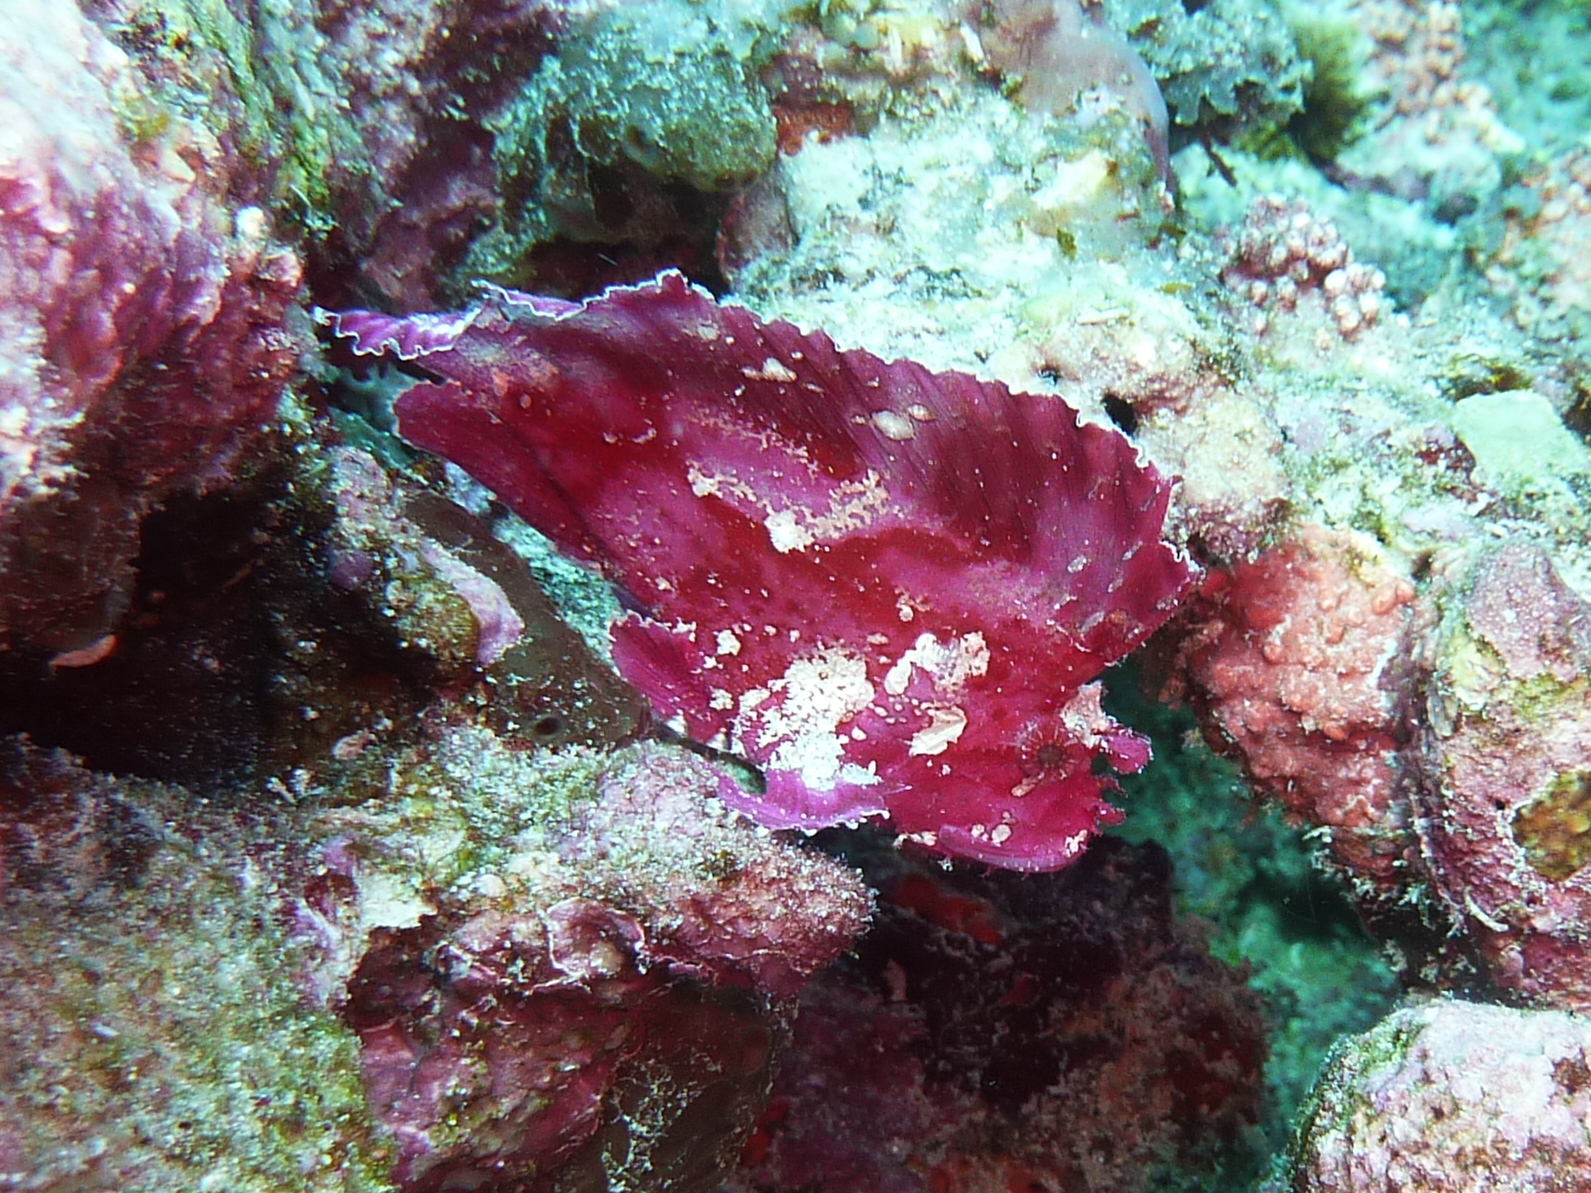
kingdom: Animalia
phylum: Chordata
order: Scorpaeniformes
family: Scorpaenidae
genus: Taenianotus
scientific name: Taenianotus triacanthus
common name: Leaf scorpionfish
